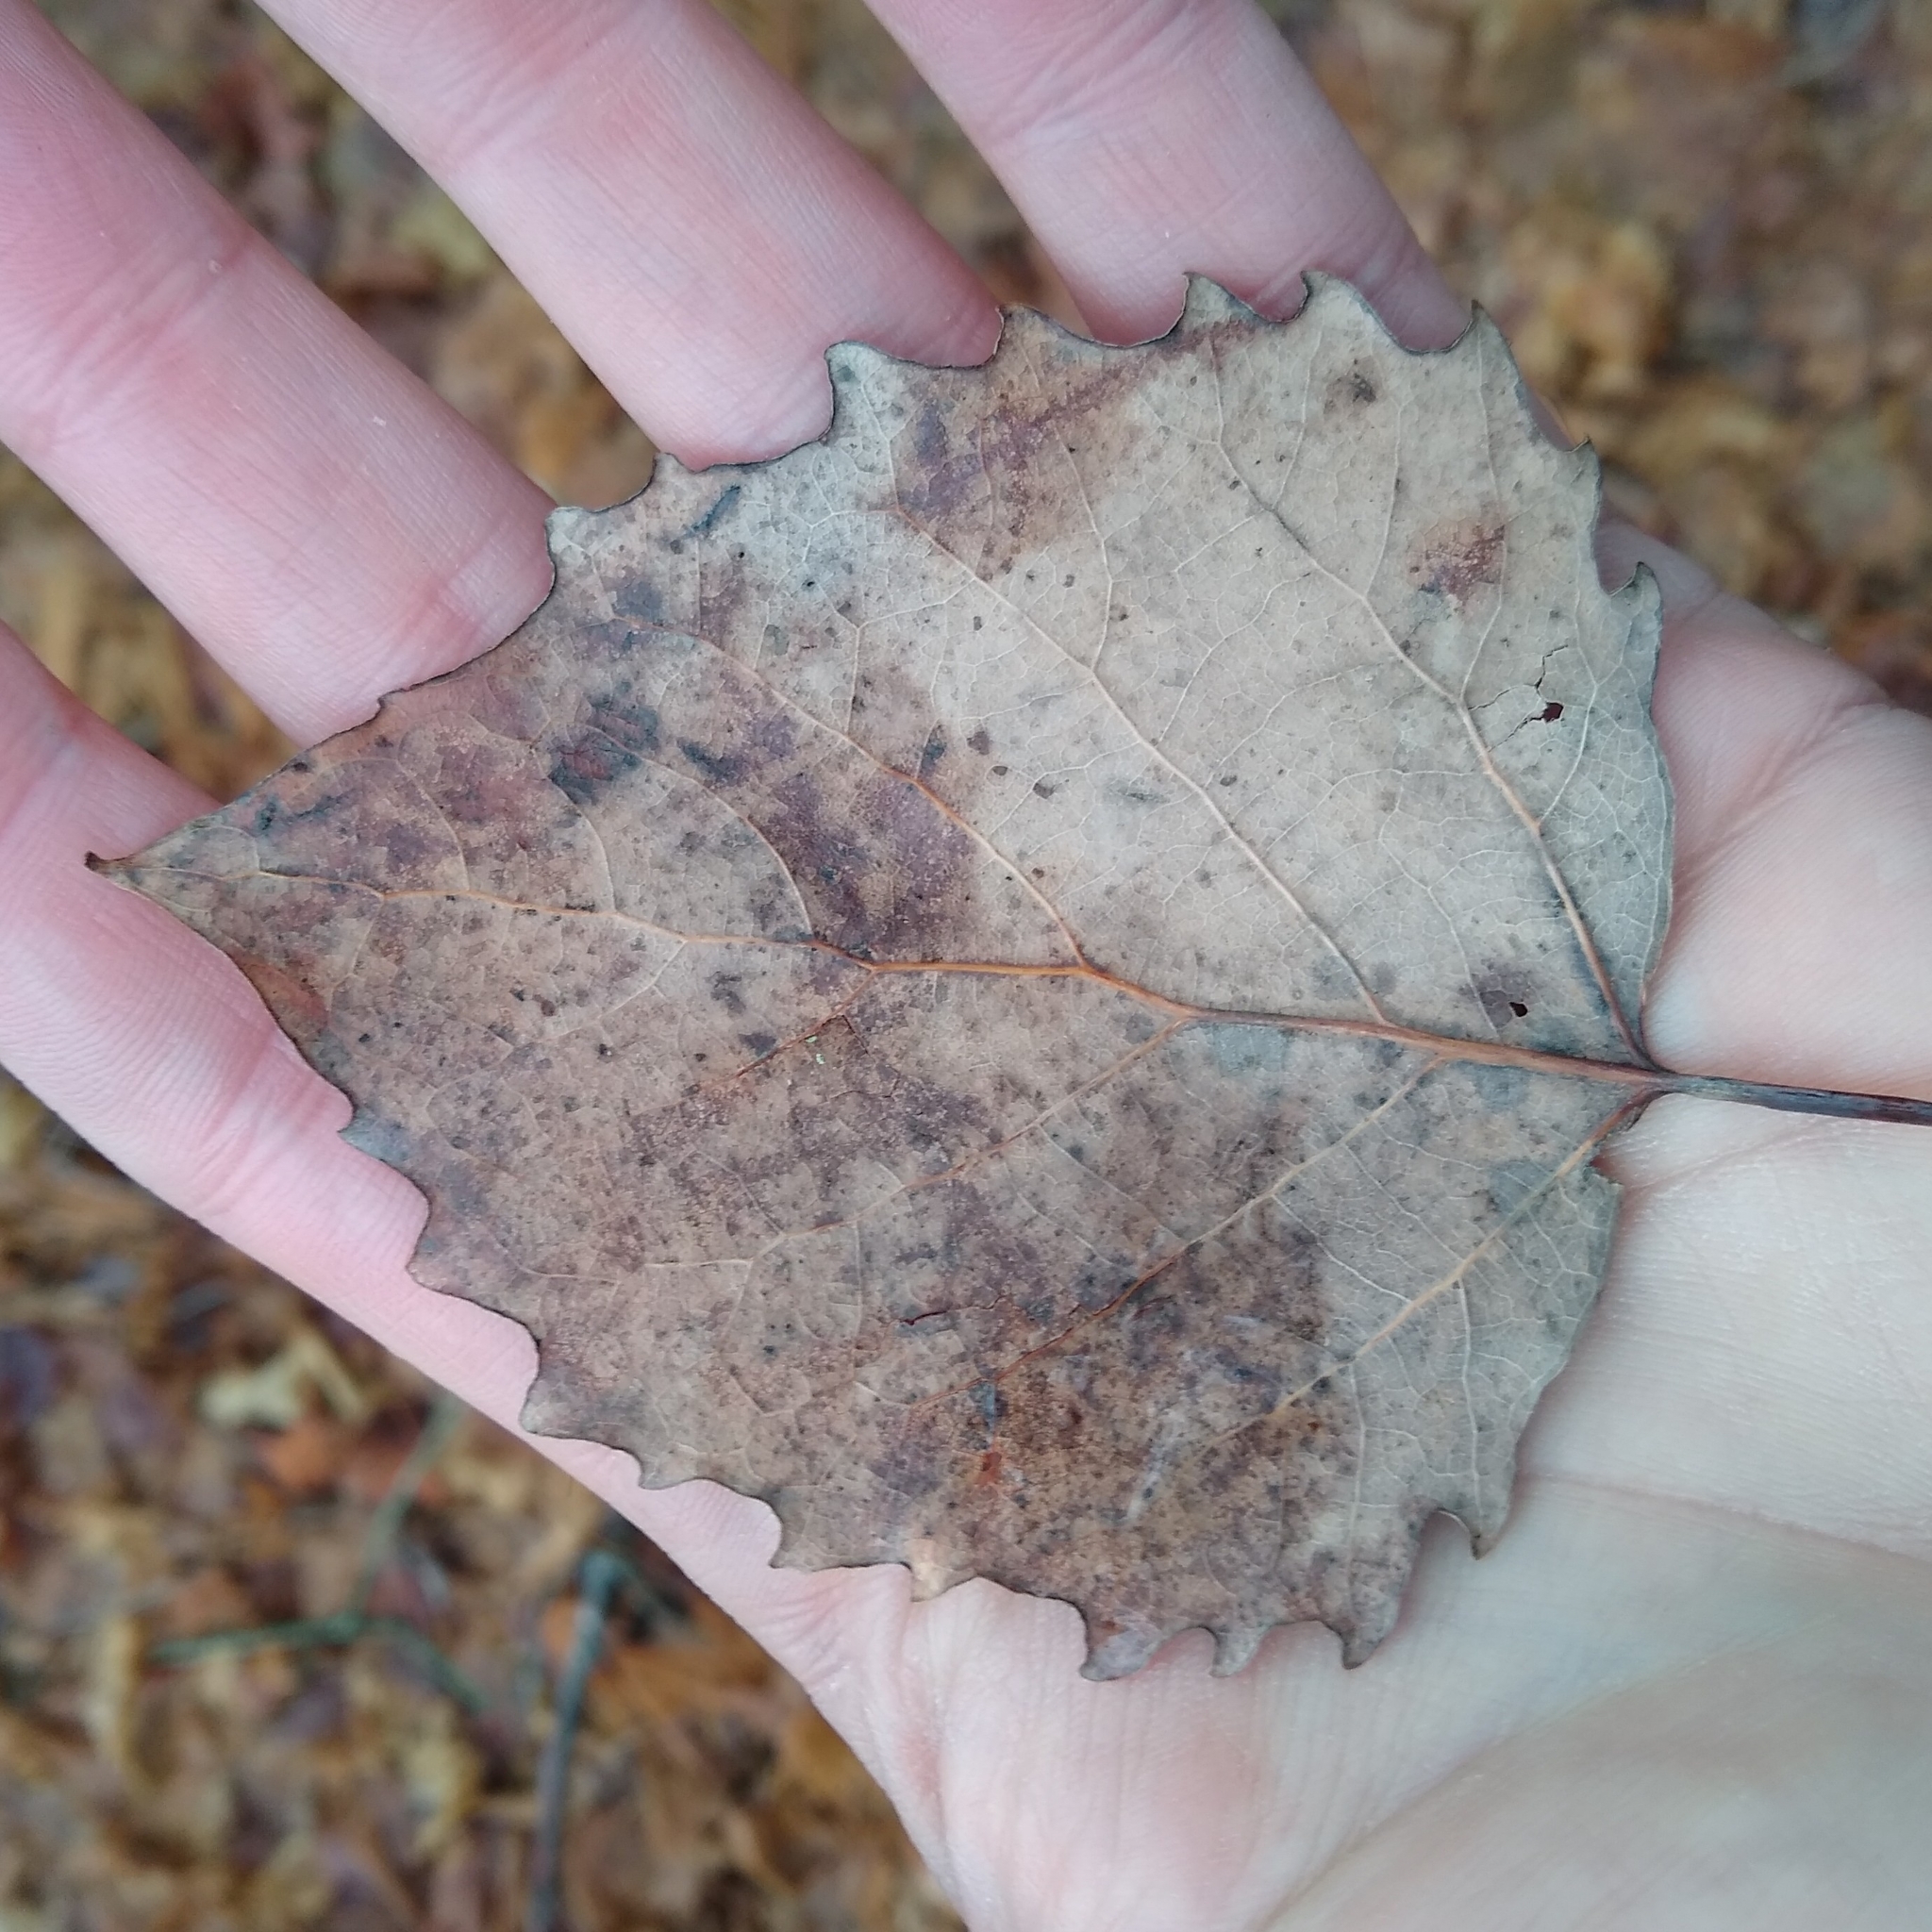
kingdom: Plantae
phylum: Tracheophyta
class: Magnoliopsida
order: Malpighiales
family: Salicaceae
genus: Populus
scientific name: Populus grandidentata
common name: Bigtooth aspen
